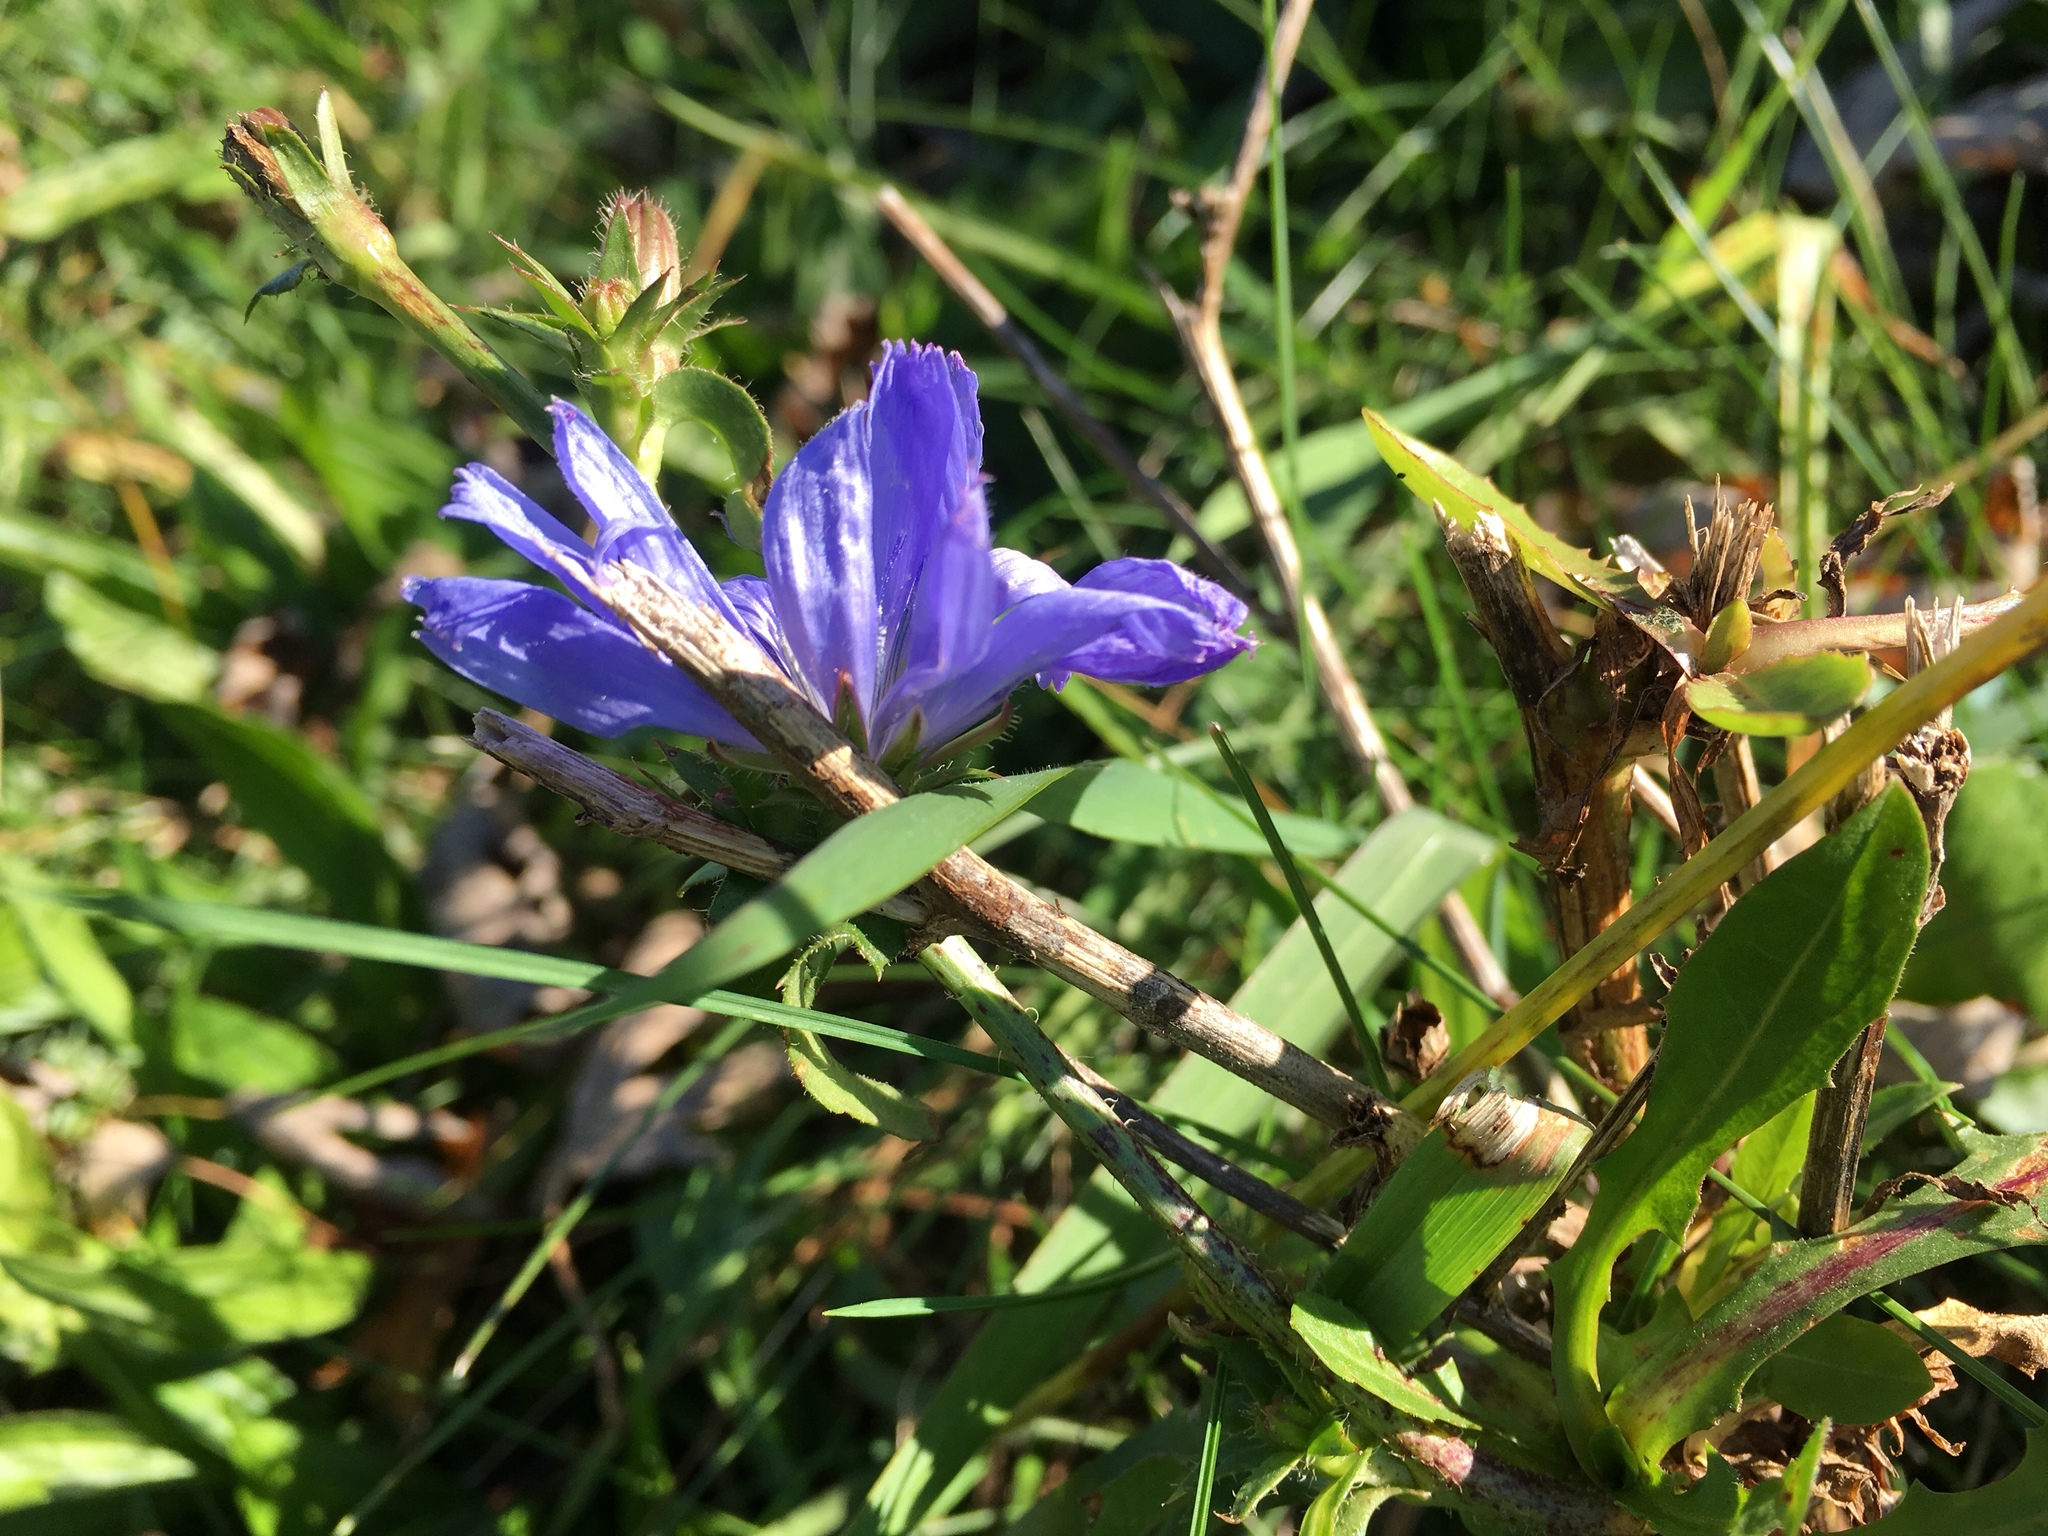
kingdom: Plantae
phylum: Tracheophyta
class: Magnoliopsida
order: Asterales
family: Asteraceae
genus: Cichorium
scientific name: Cichorium intybus
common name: Chicory
